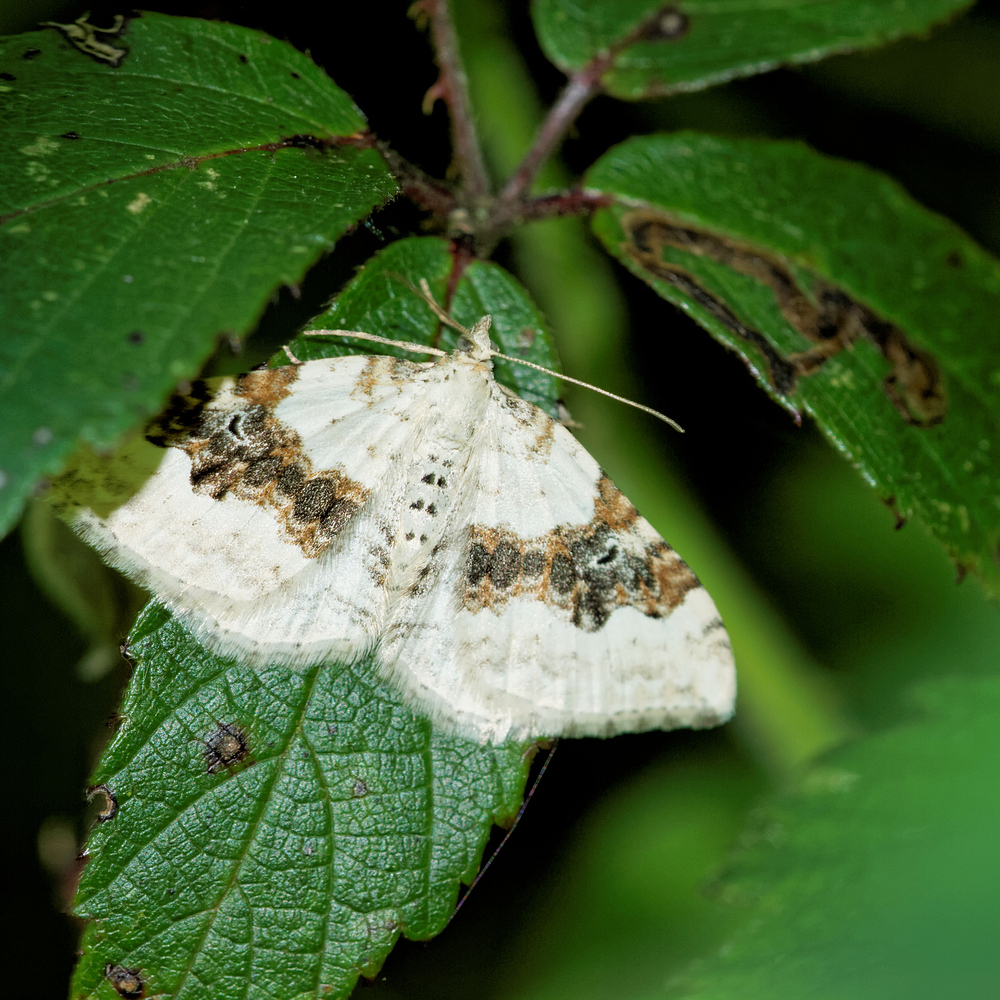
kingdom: Animalia
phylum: Arthropoda
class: Insecta
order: Lepidoptera
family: Geometridae
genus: Xanthorhoe
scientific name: Xanthorhoe montanata
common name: Silver-ground carpet
